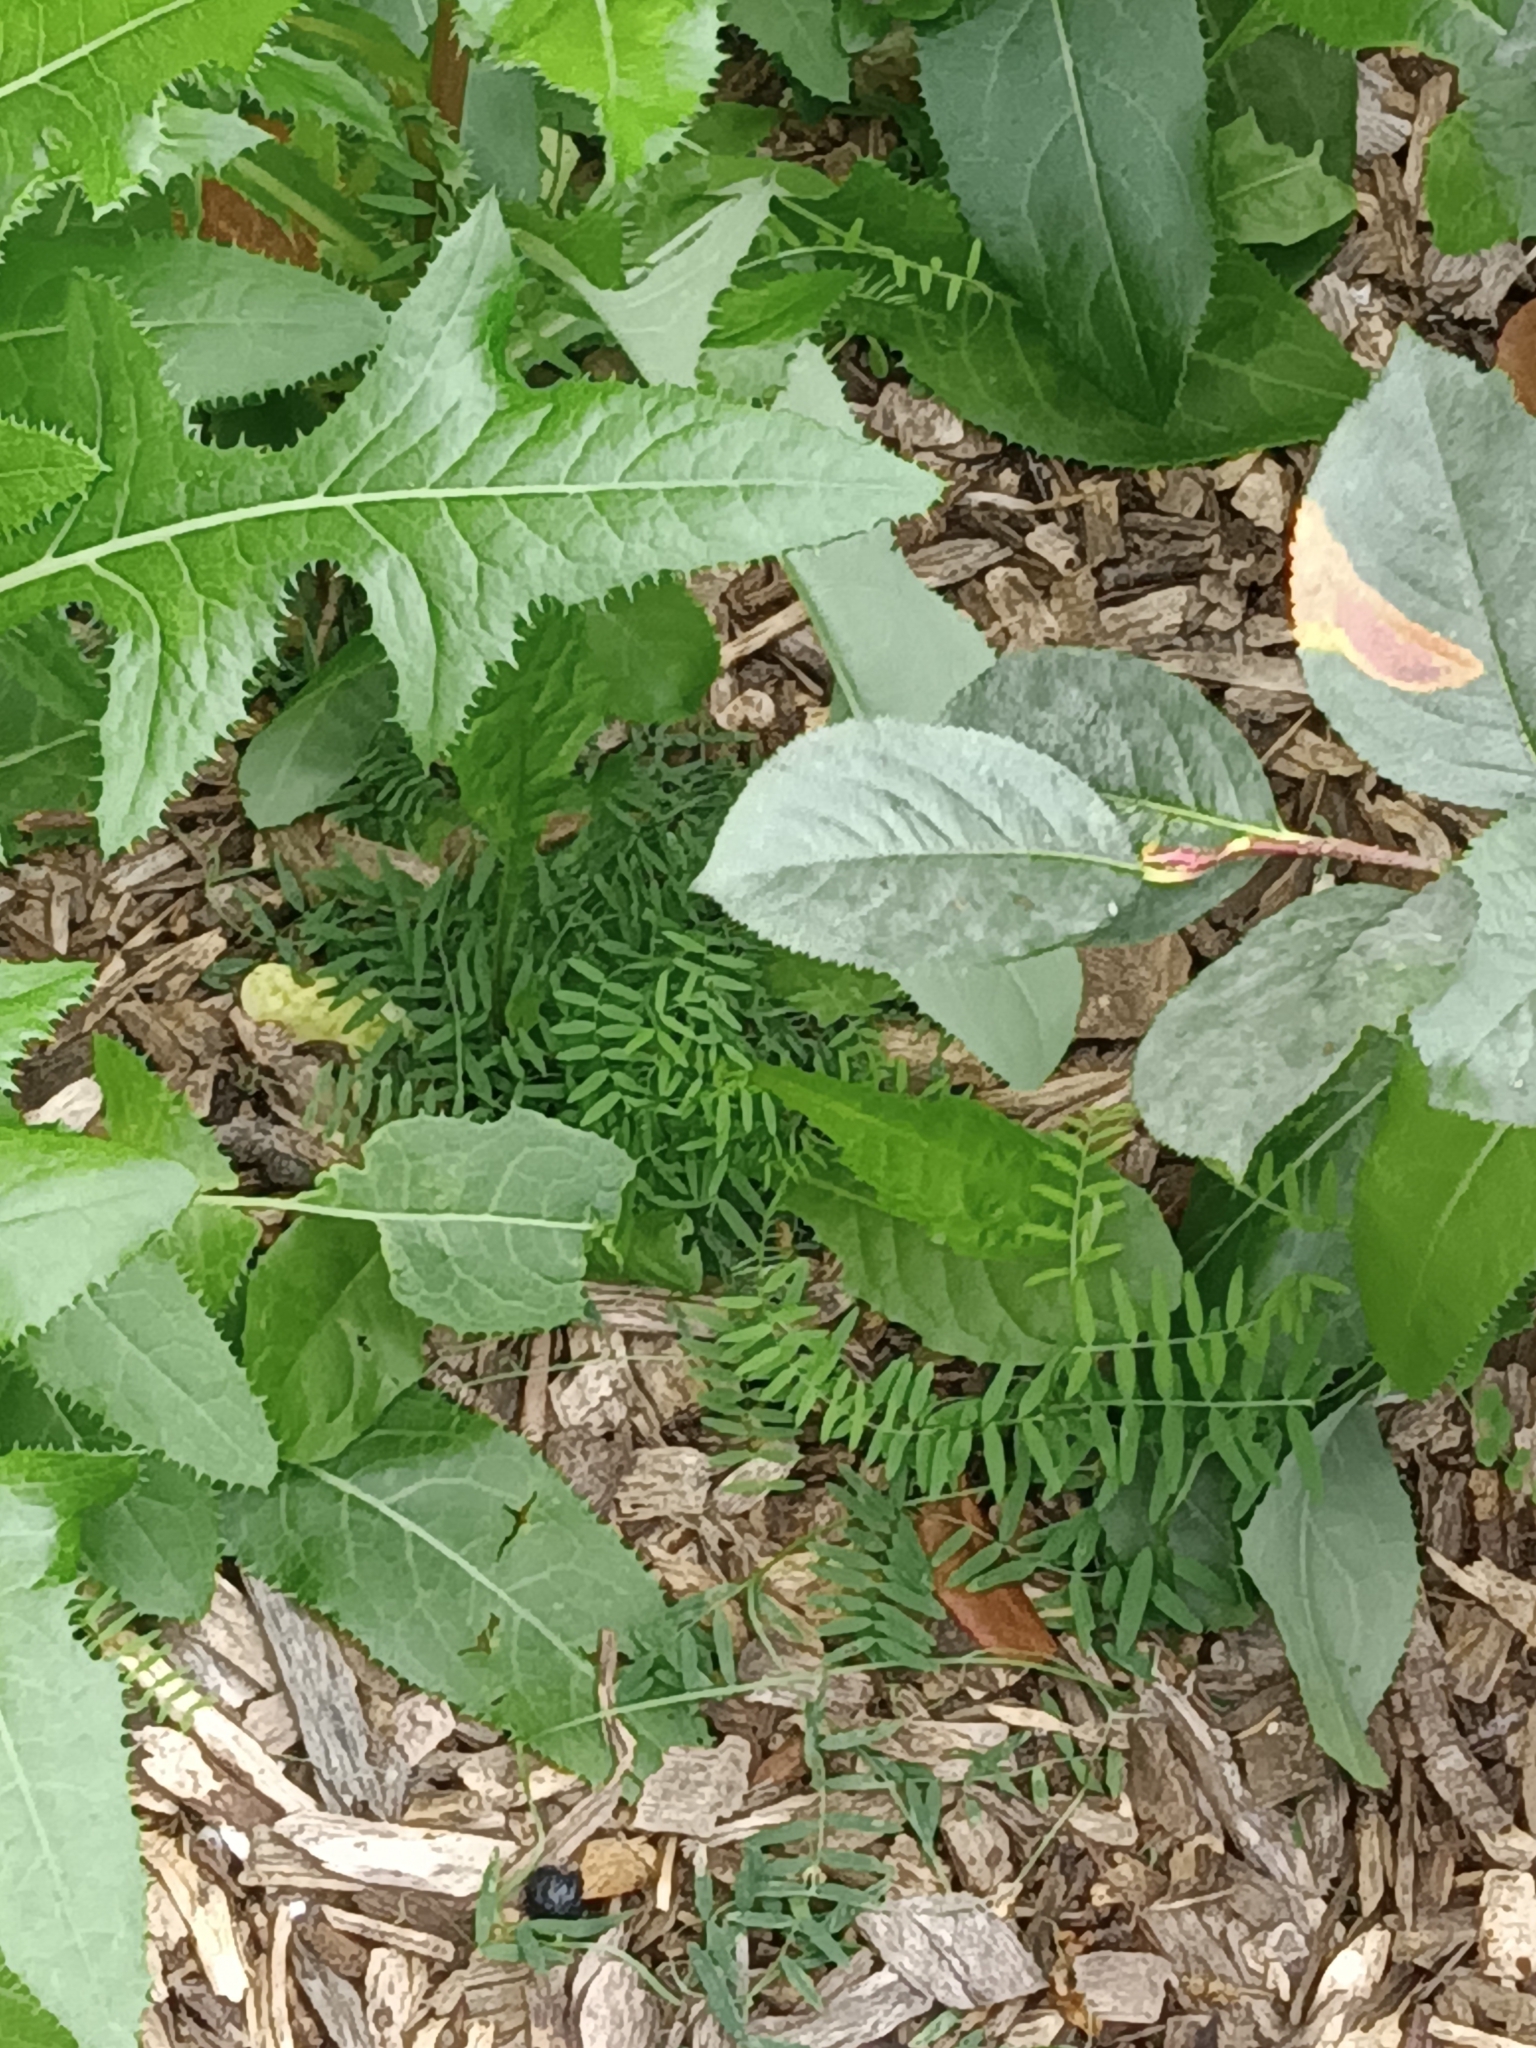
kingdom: Plantae
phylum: Tracheophyta
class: Magnoliopsida
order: Fabales
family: Fabaceae
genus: Vicia
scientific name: Vicia cracca
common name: Bird vetch
